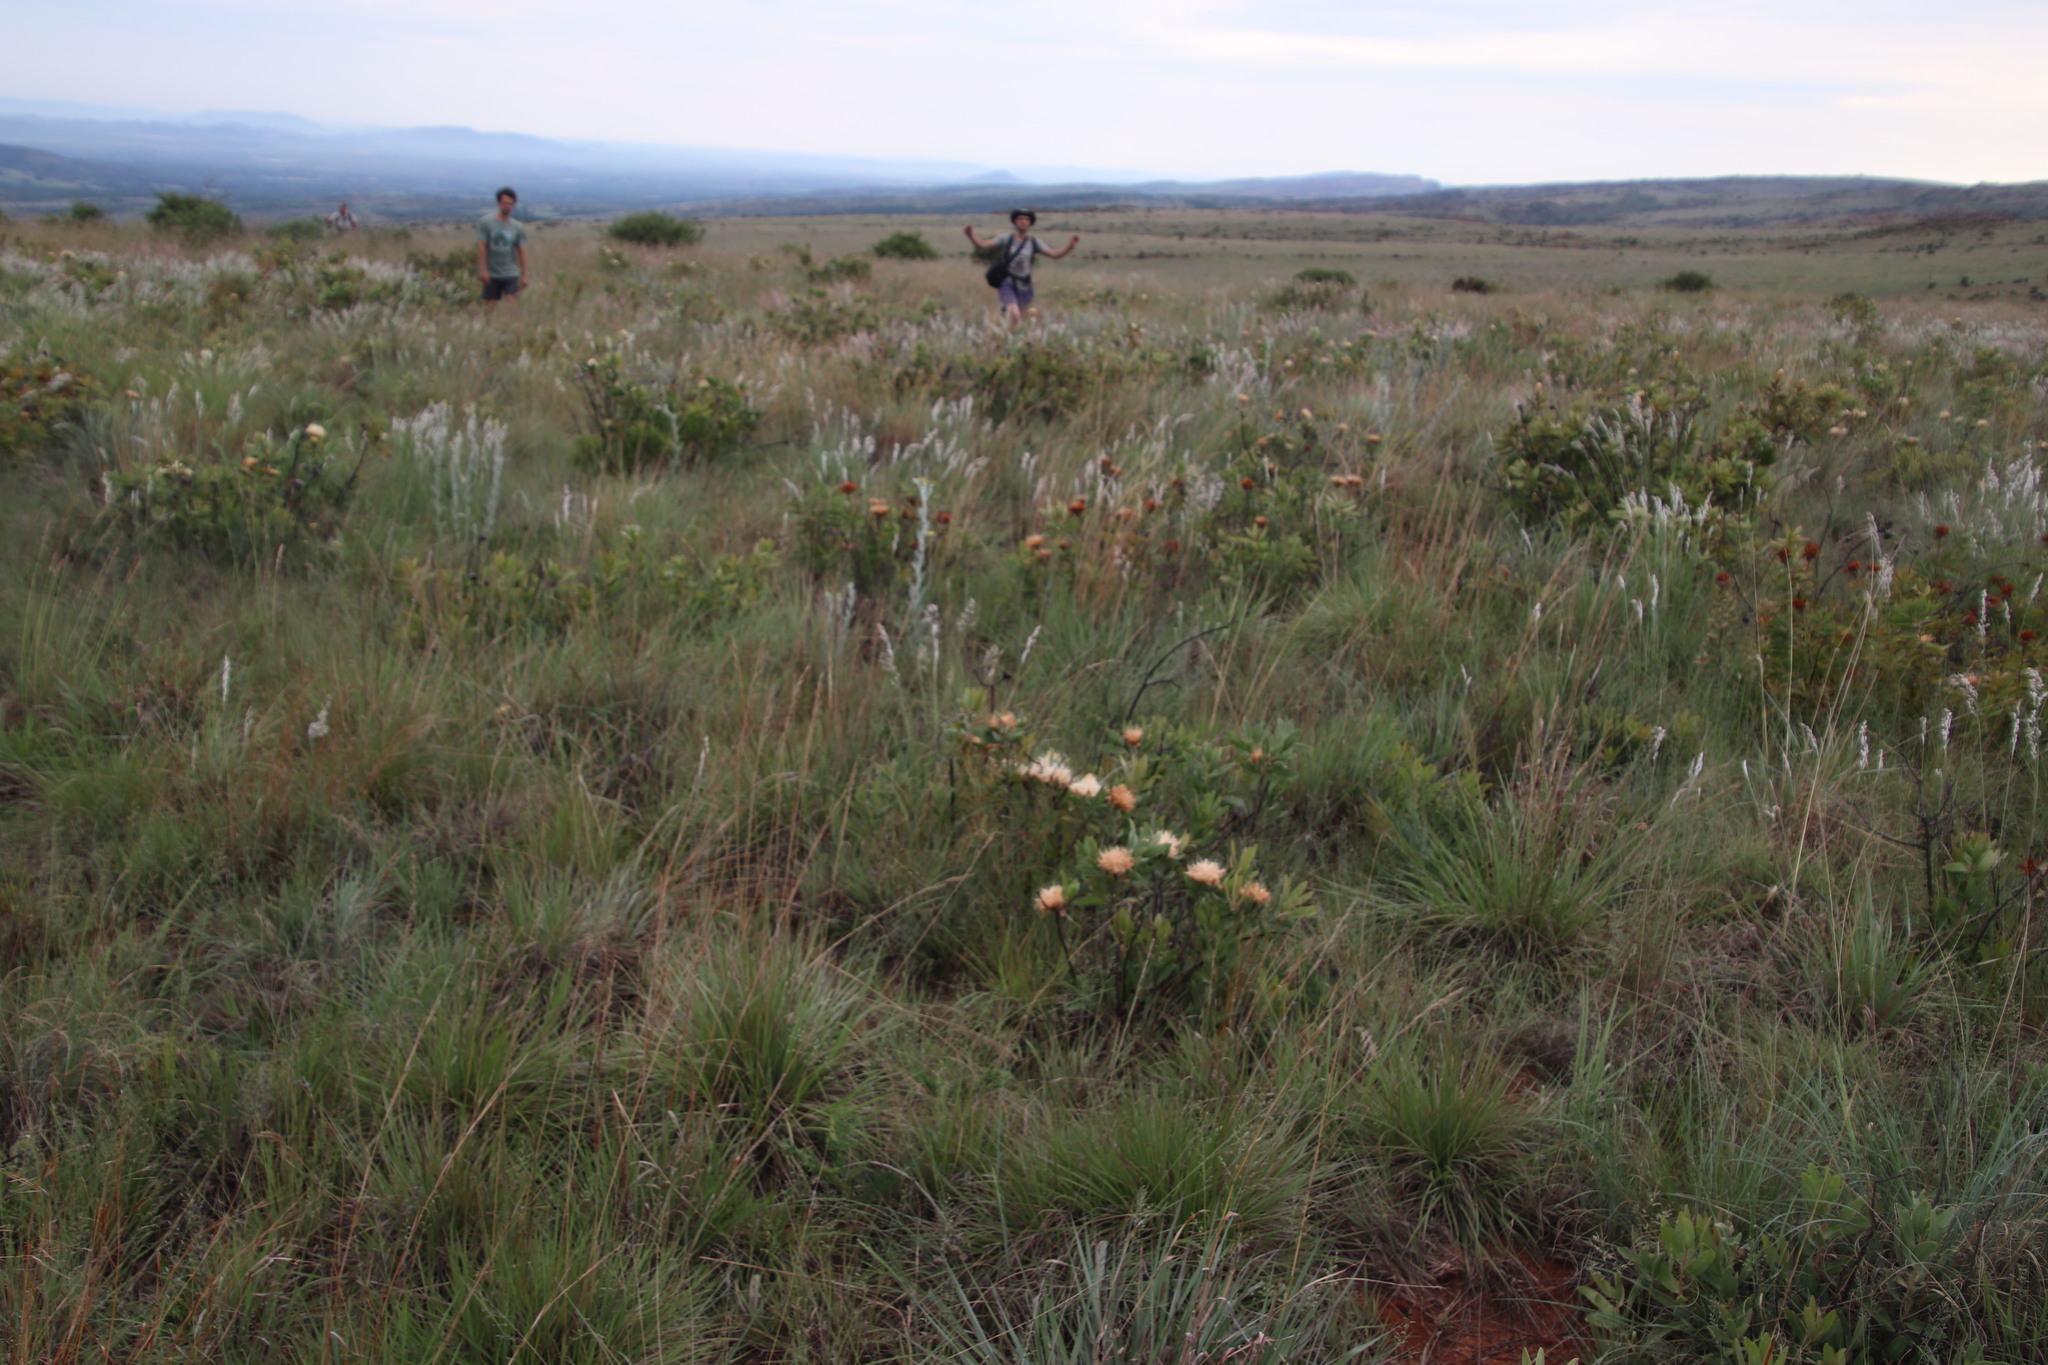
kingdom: Plantae
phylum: Tracheophyta
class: Liliopsida
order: Poales
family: Poaceae
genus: Melinis
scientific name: Melinis nerviglumis
